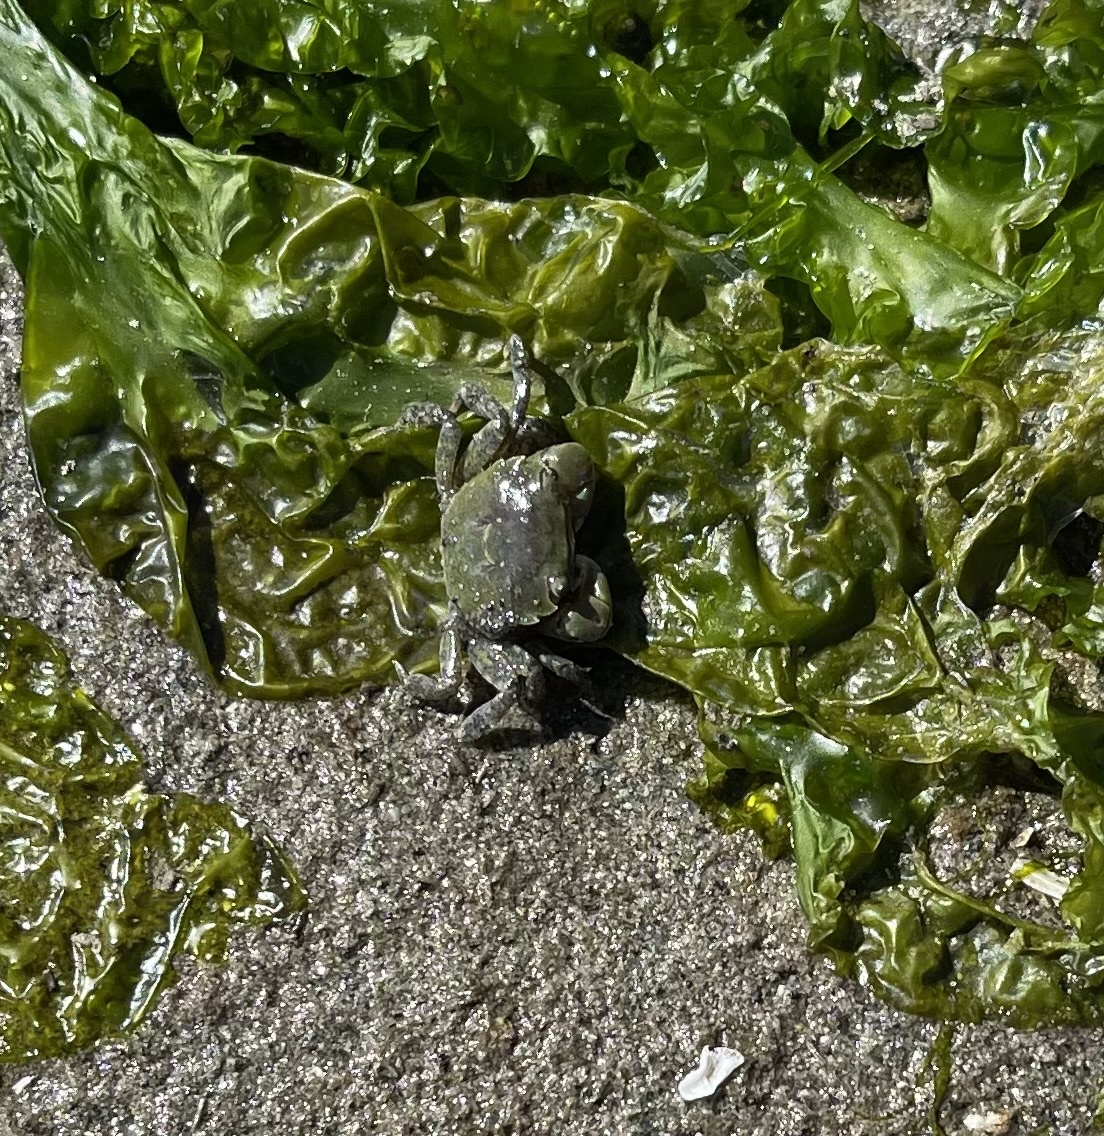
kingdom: Animalia
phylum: Arthropoda
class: Malacostraca
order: Decapoda
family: Varunidae
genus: Hemigrapsus
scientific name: Hemigrapsus oregonensis
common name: Yellow shore crab
